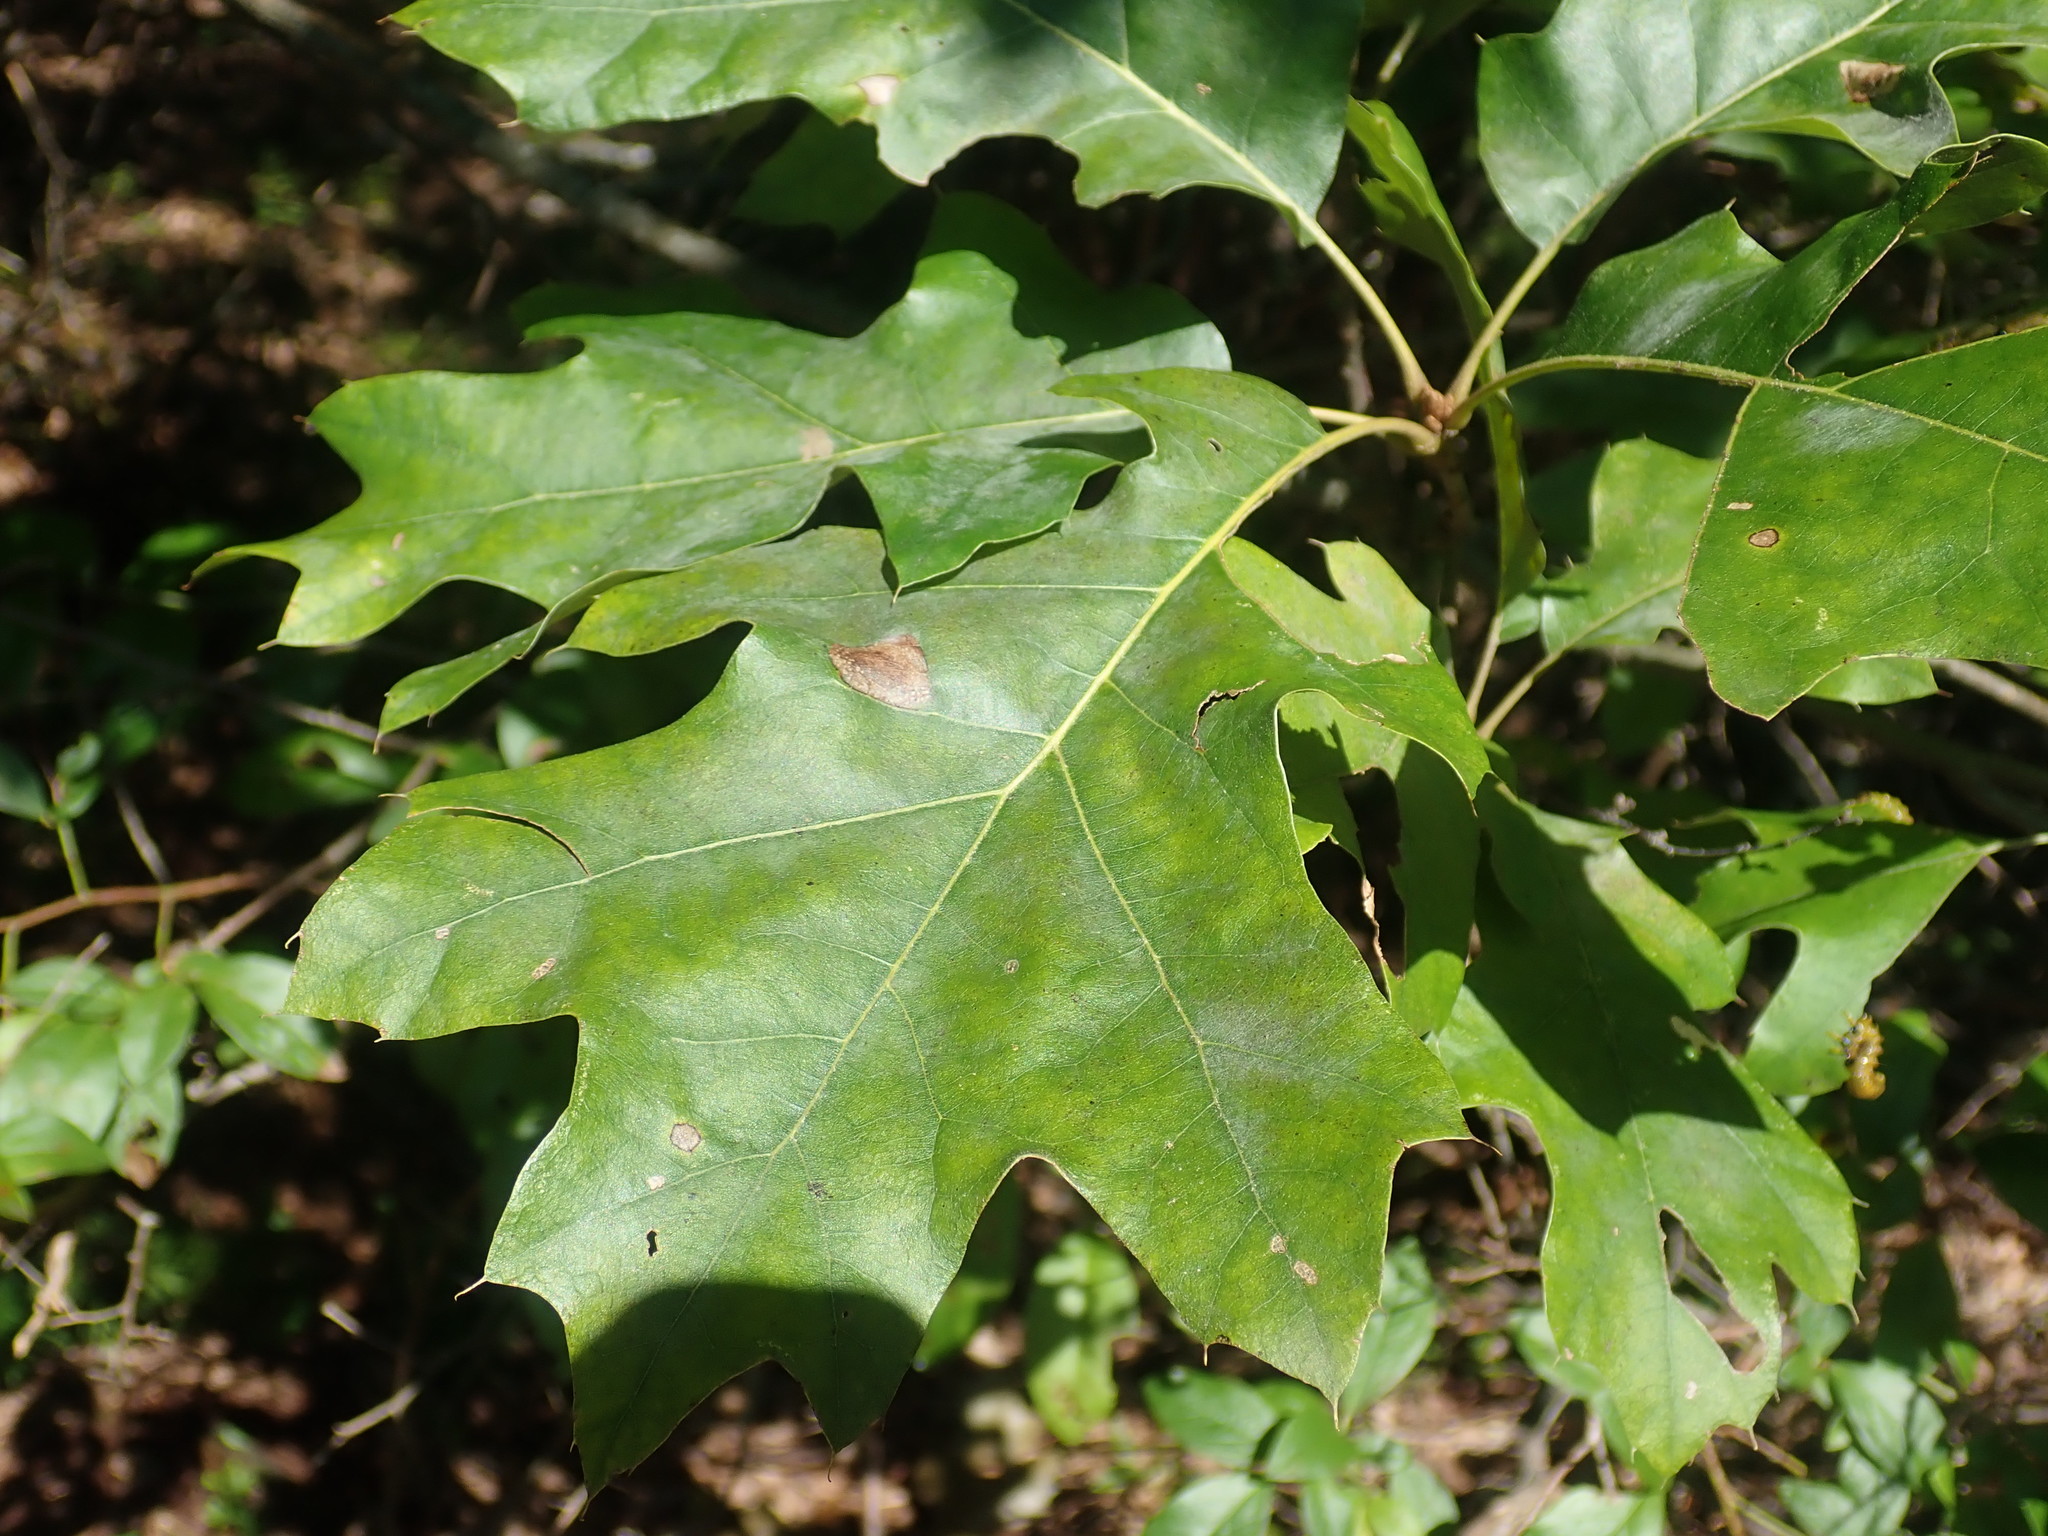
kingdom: Plantae
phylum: Tracheophyta
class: Magnoliopsida
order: Fagales
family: Fagaceae
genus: Quercus
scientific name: Quercus velutina
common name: Black oak
